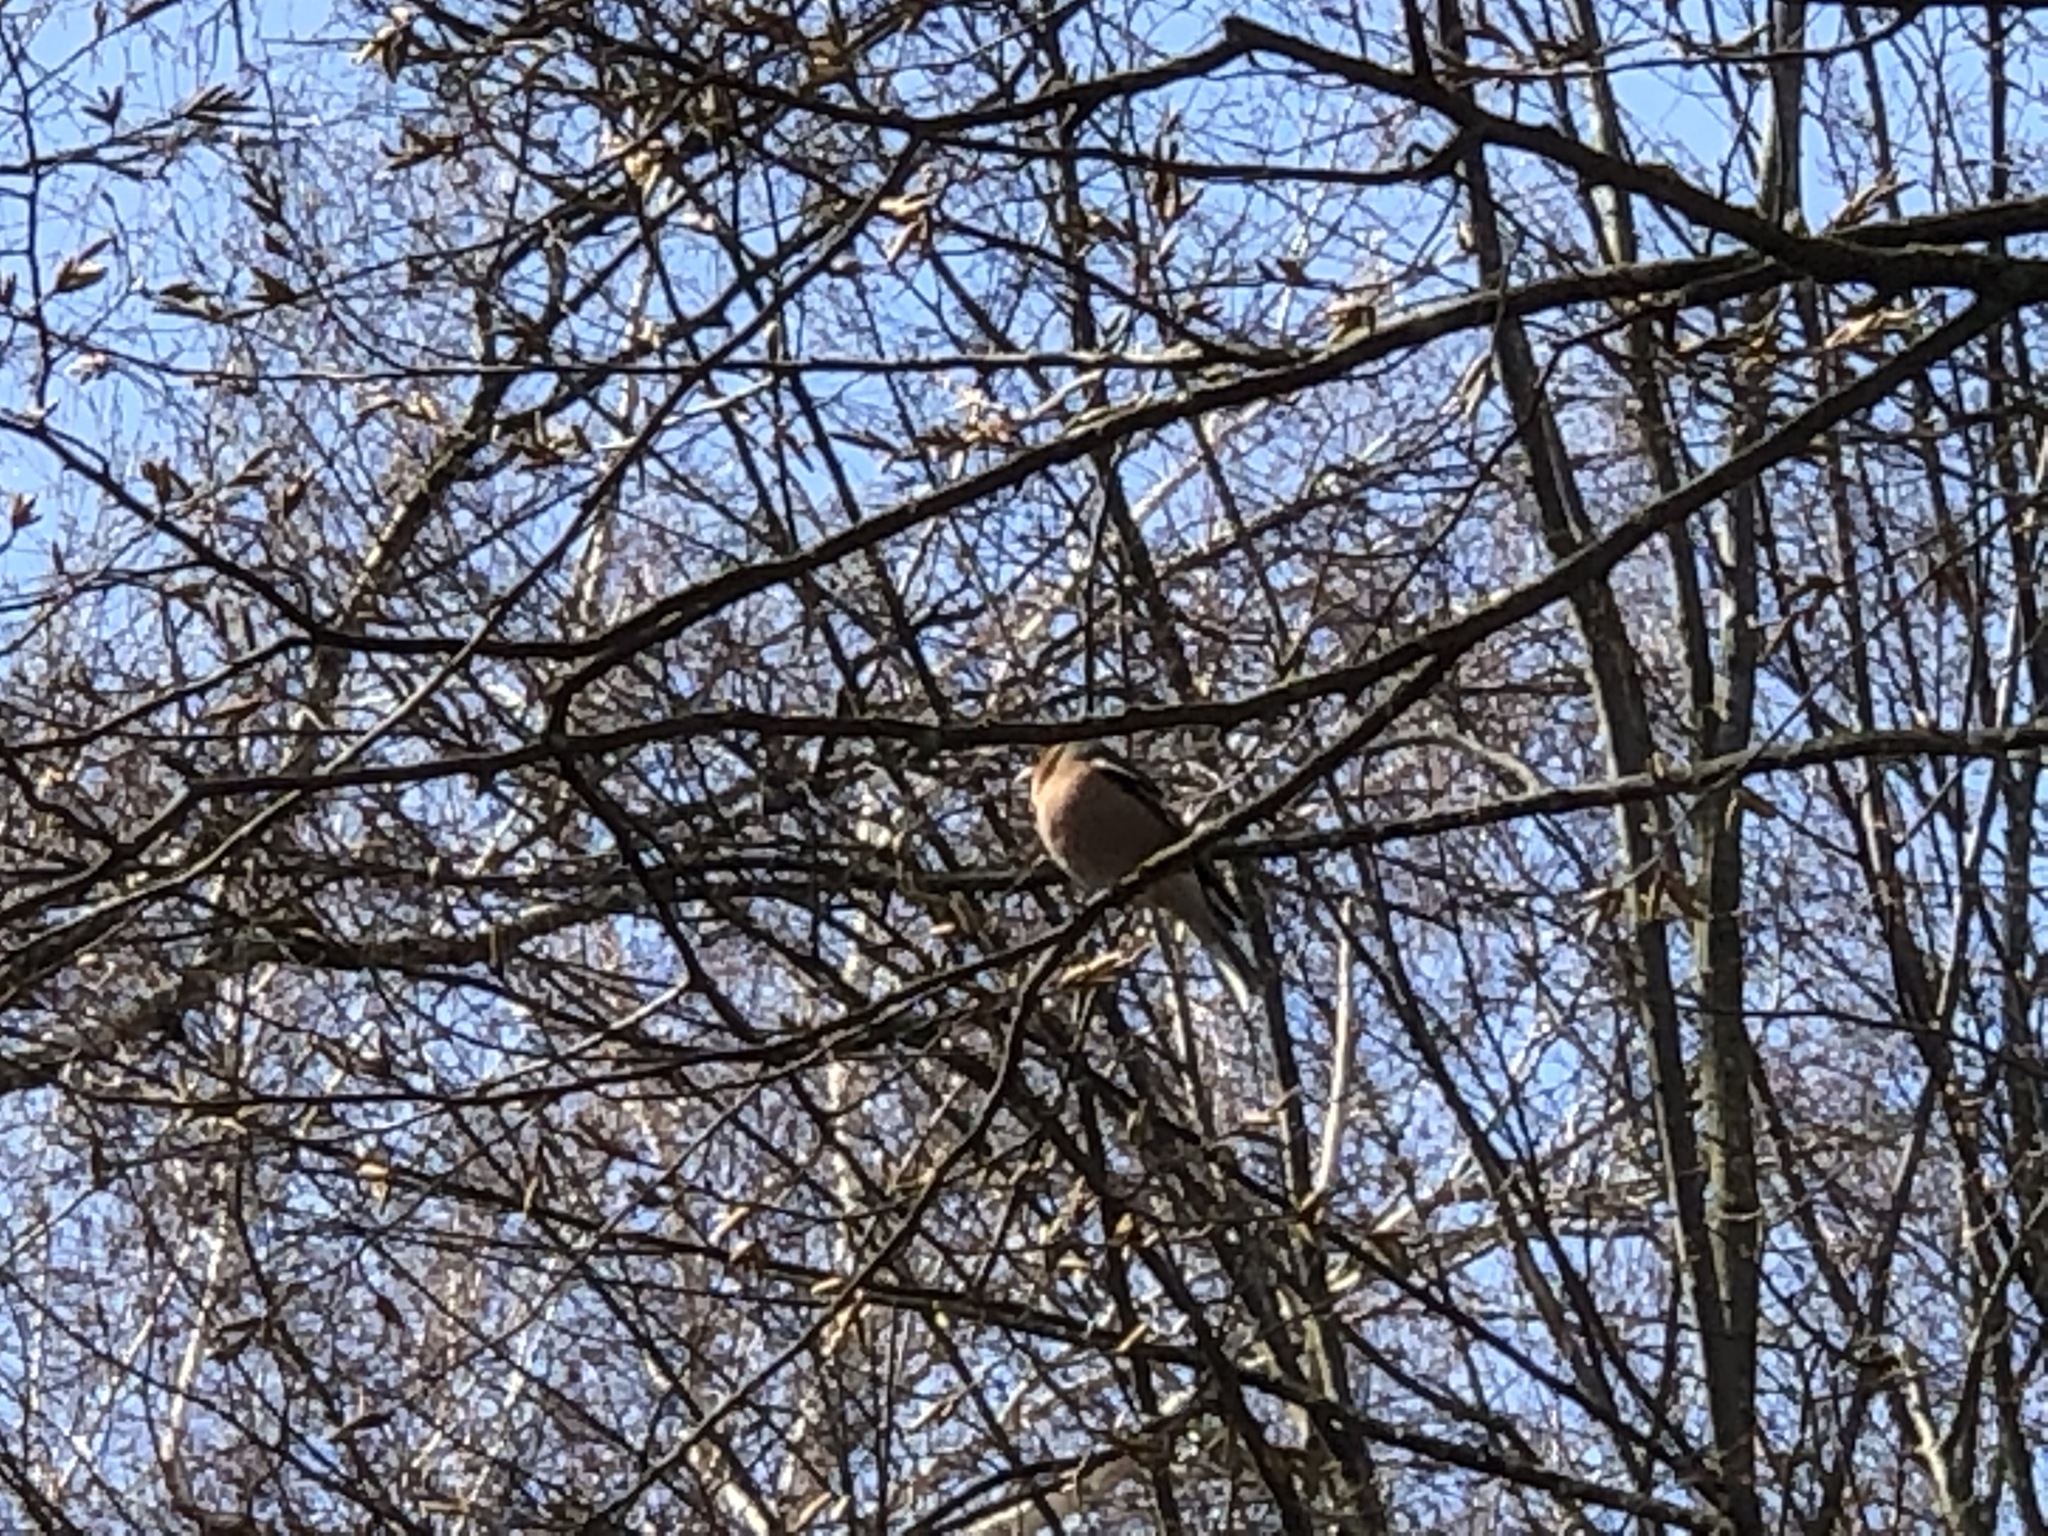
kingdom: Animalia
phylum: Chordata
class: Aves
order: Passeriformes
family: Fringillidae
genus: Fringilla
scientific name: Fringilla coelebs
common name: Common chaffinch
